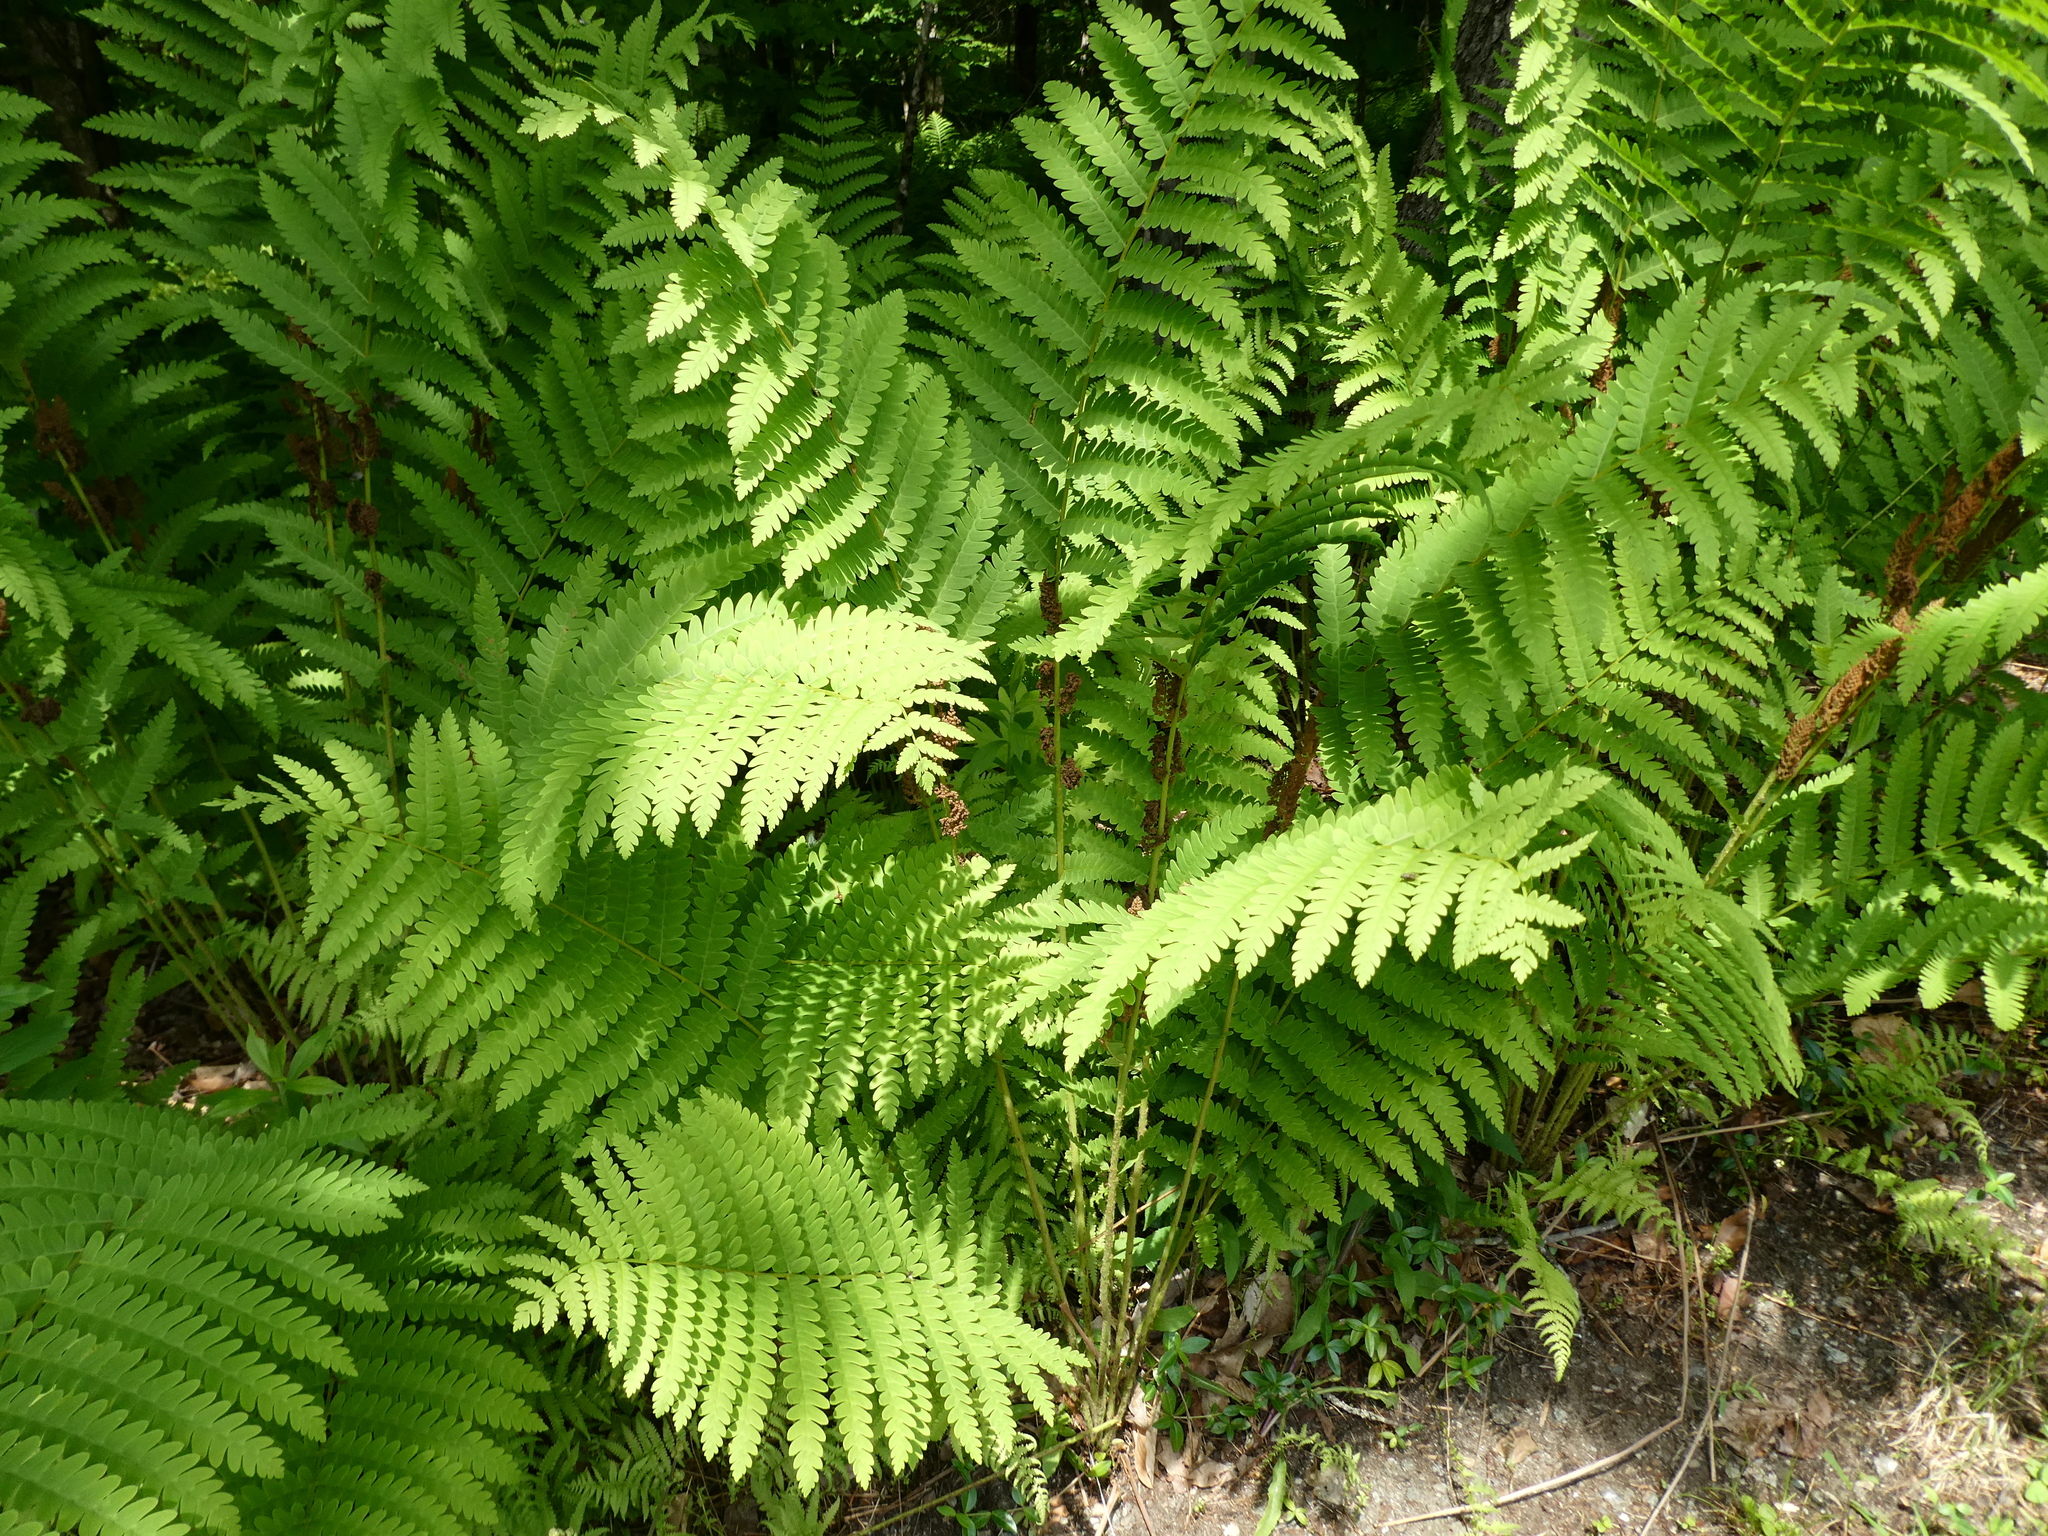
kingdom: Plantae
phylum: Tracheophyta
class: Polypodiopsida
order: Osmundales
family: Osmundaceae
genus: Claytosmunda
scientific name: Claytosmunda claytoniana
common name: Clayton's fern
